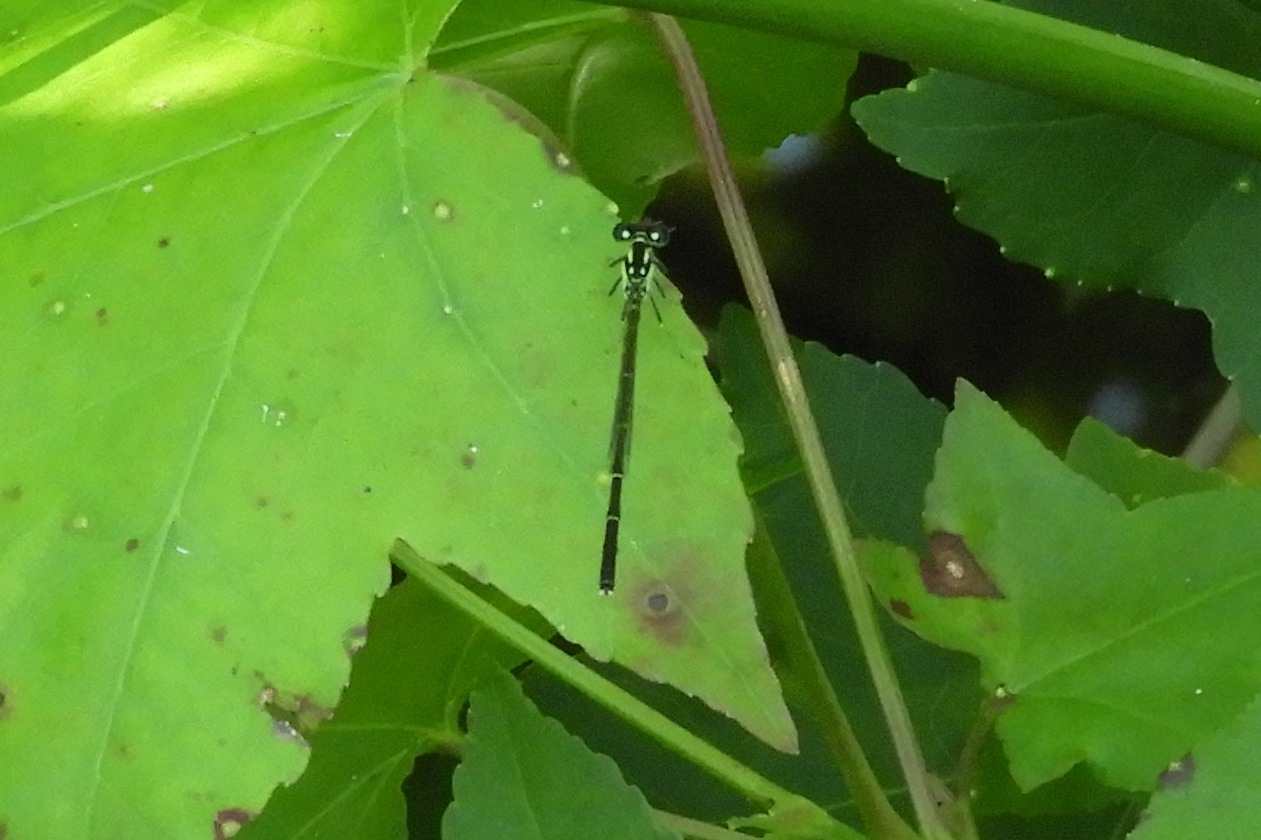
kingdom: Animalia
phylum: Arthropoda
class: Insecta
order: Odonata
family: Coenagrionidae
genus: Ischnura
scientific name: Ischnura posita
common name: Fragile forktail
